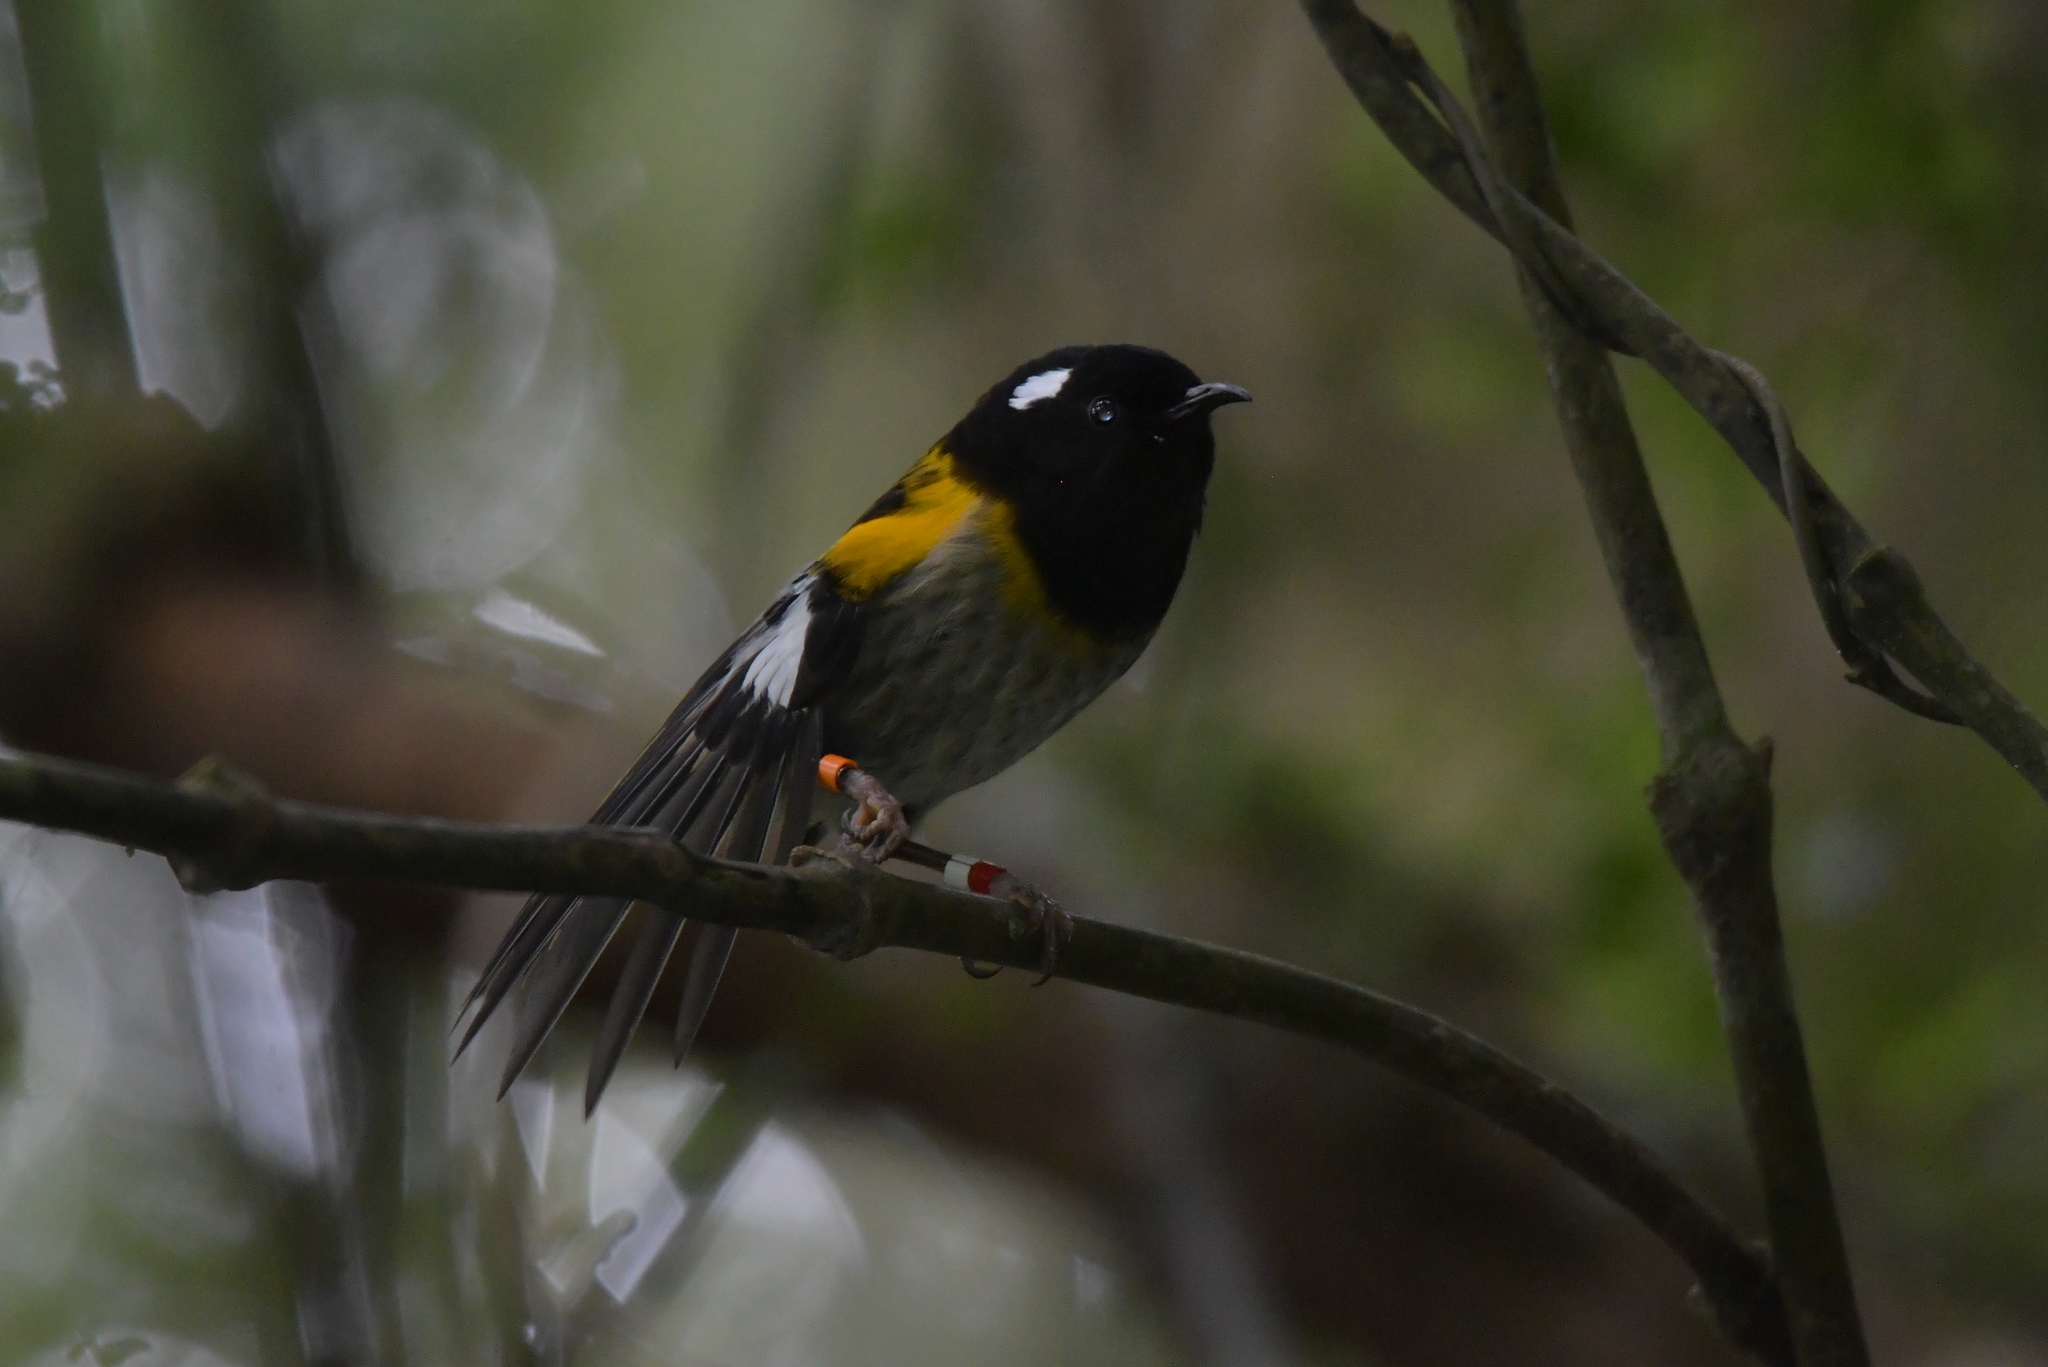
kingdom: Animalia
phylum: Chordata
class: Aves
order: Passeriformes
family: Notiomystidae
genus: Notiomystis
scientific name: Notiomystis cincta
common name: Stitchbird
